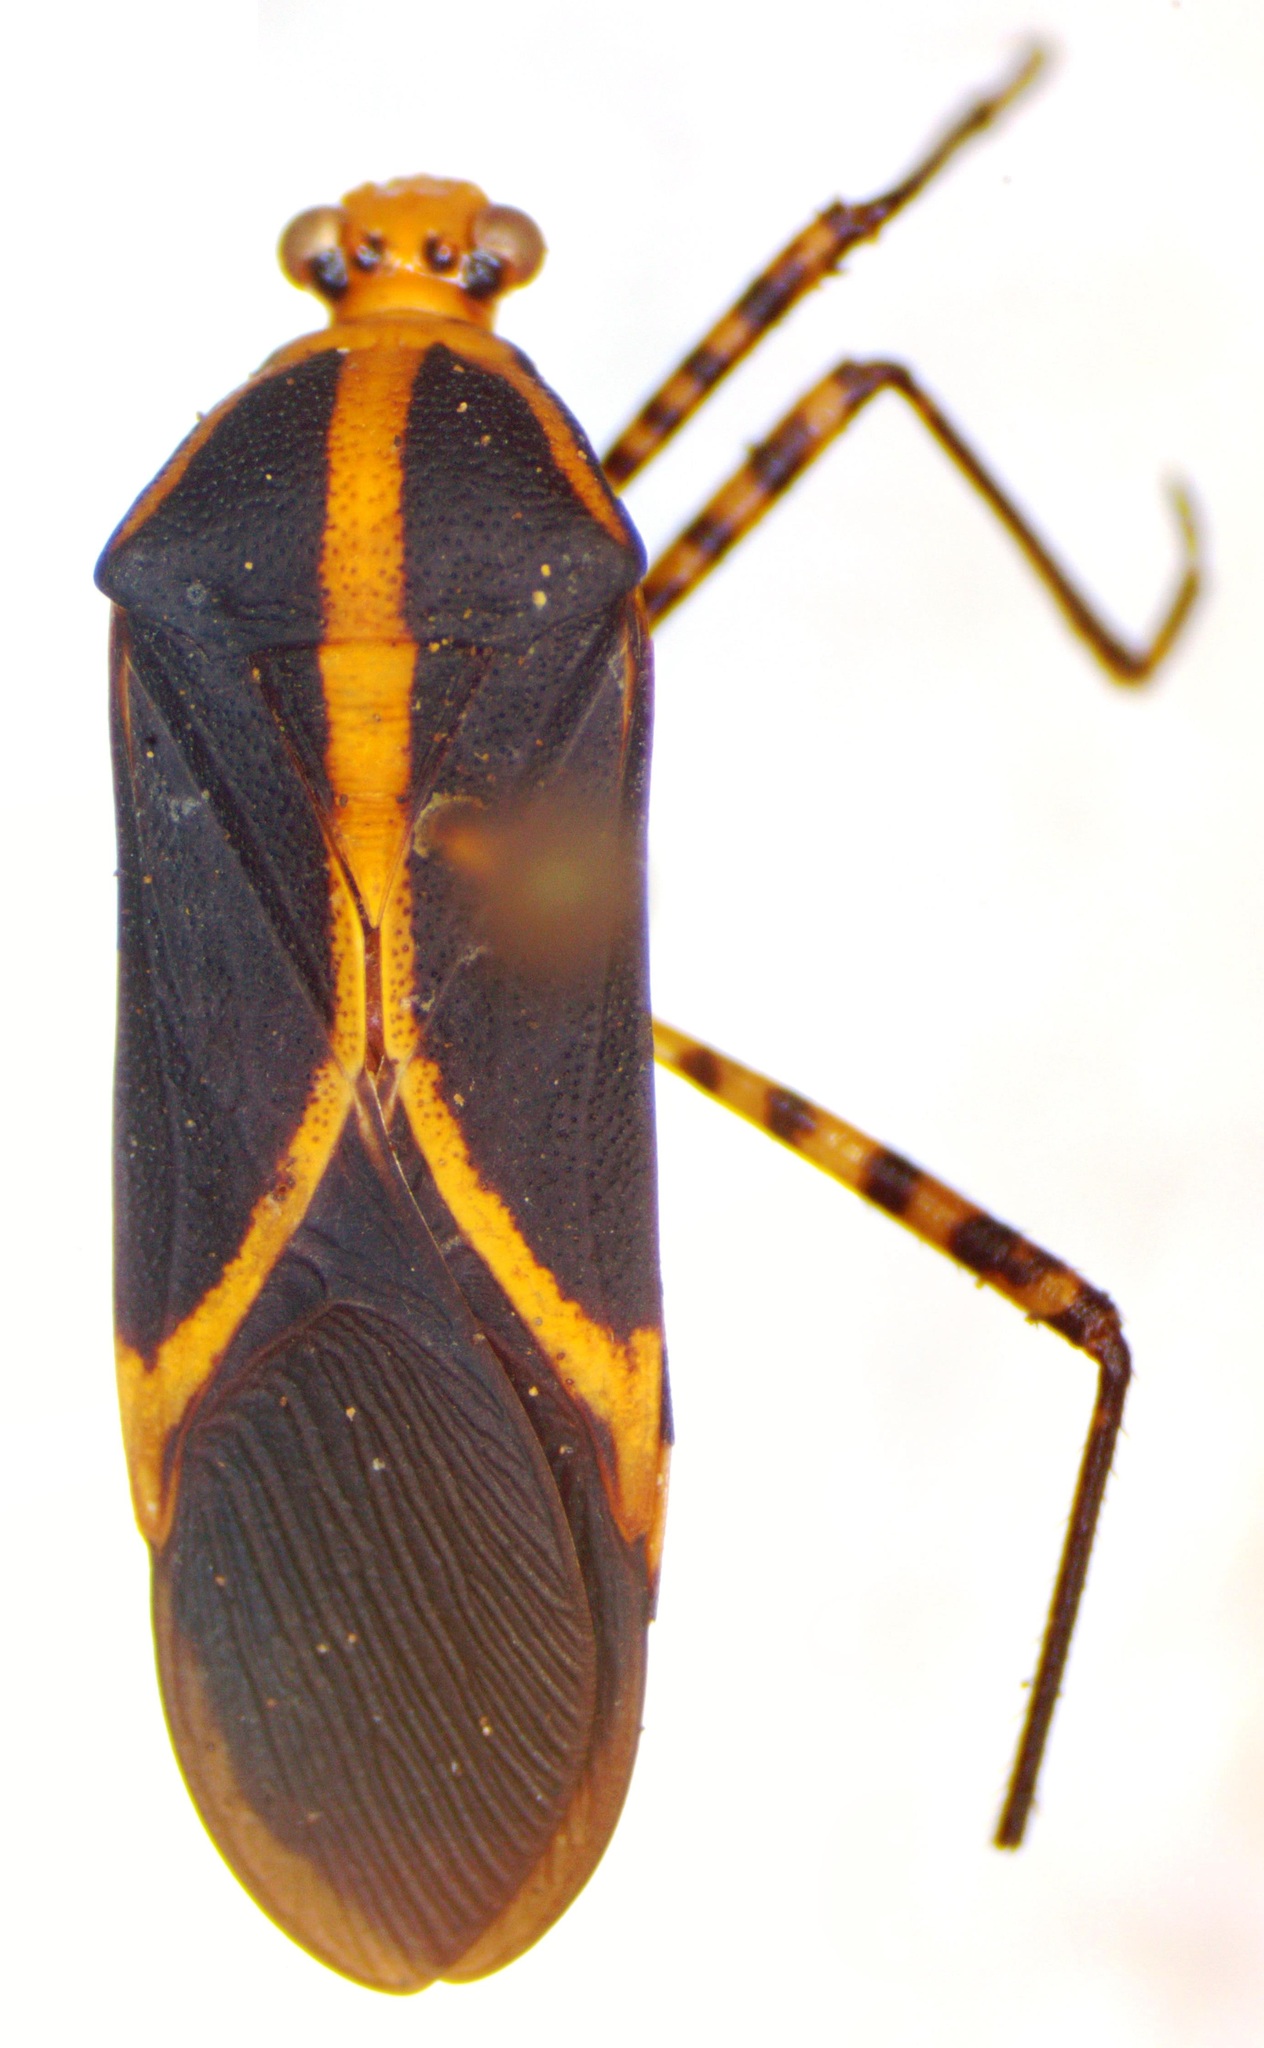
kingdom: Animalia
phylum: Arthropoda
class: Insecta
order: Hemiptera
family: Coreidae
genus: Hypselonotus
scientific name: Hypselonotus linea
